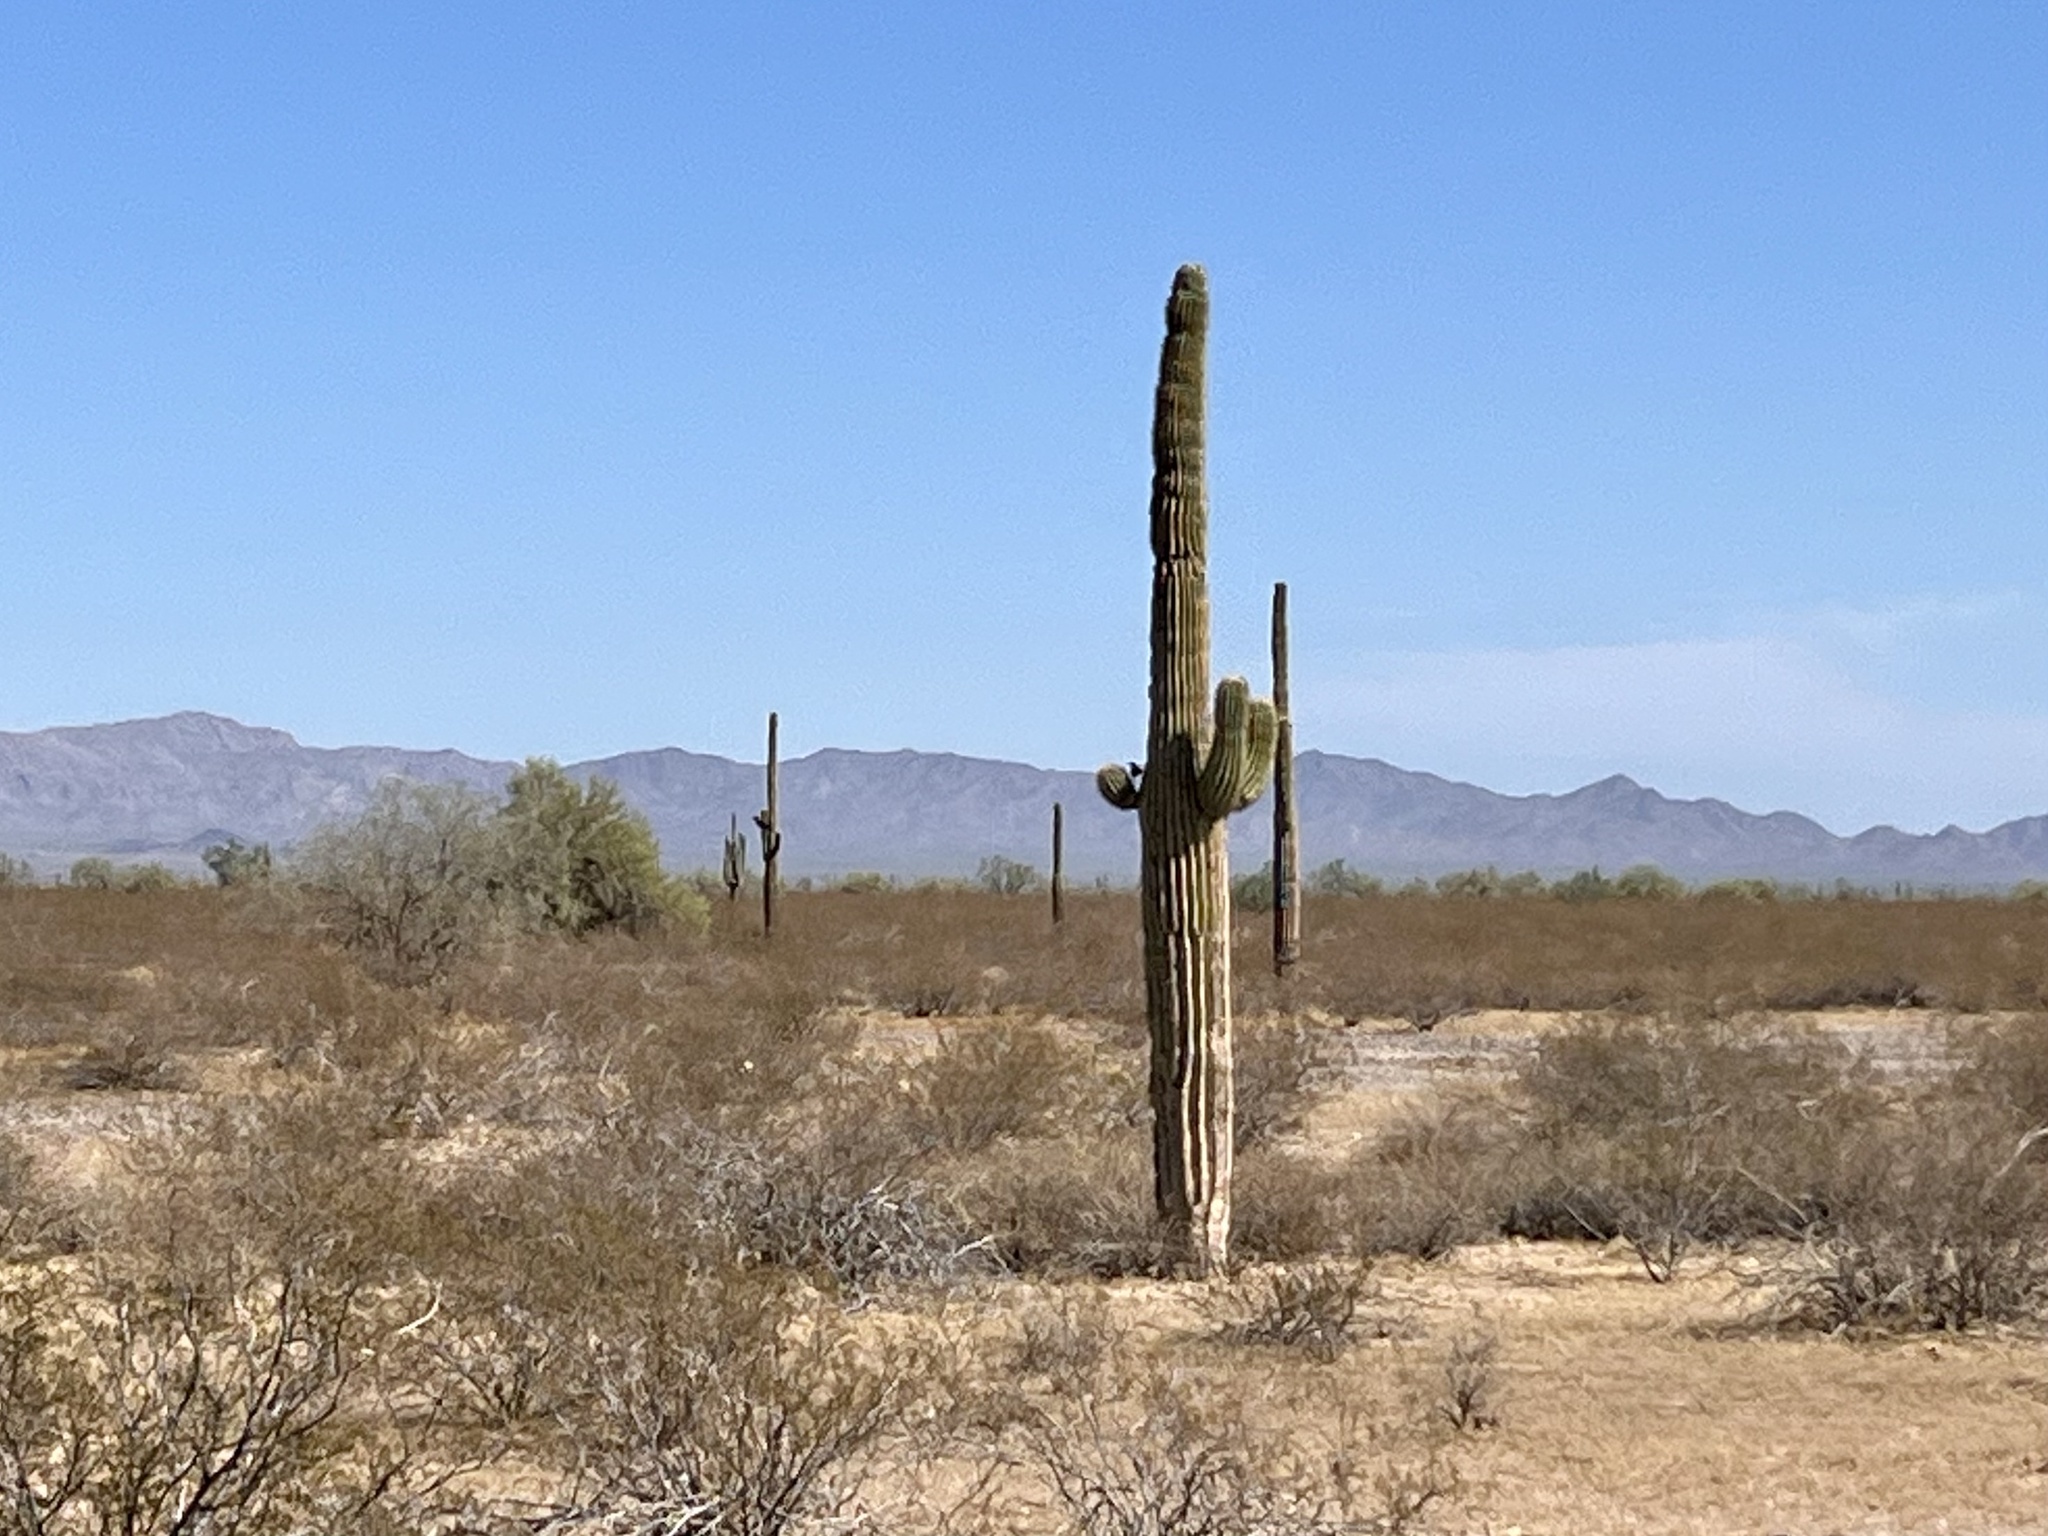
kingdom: Plantae
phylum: Tracheophyta
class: Magnoliopsida
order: Caryophyllales
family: Cactaceae
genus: Carnegiea
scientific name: Carnegiea gigantea
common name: Saguaro
